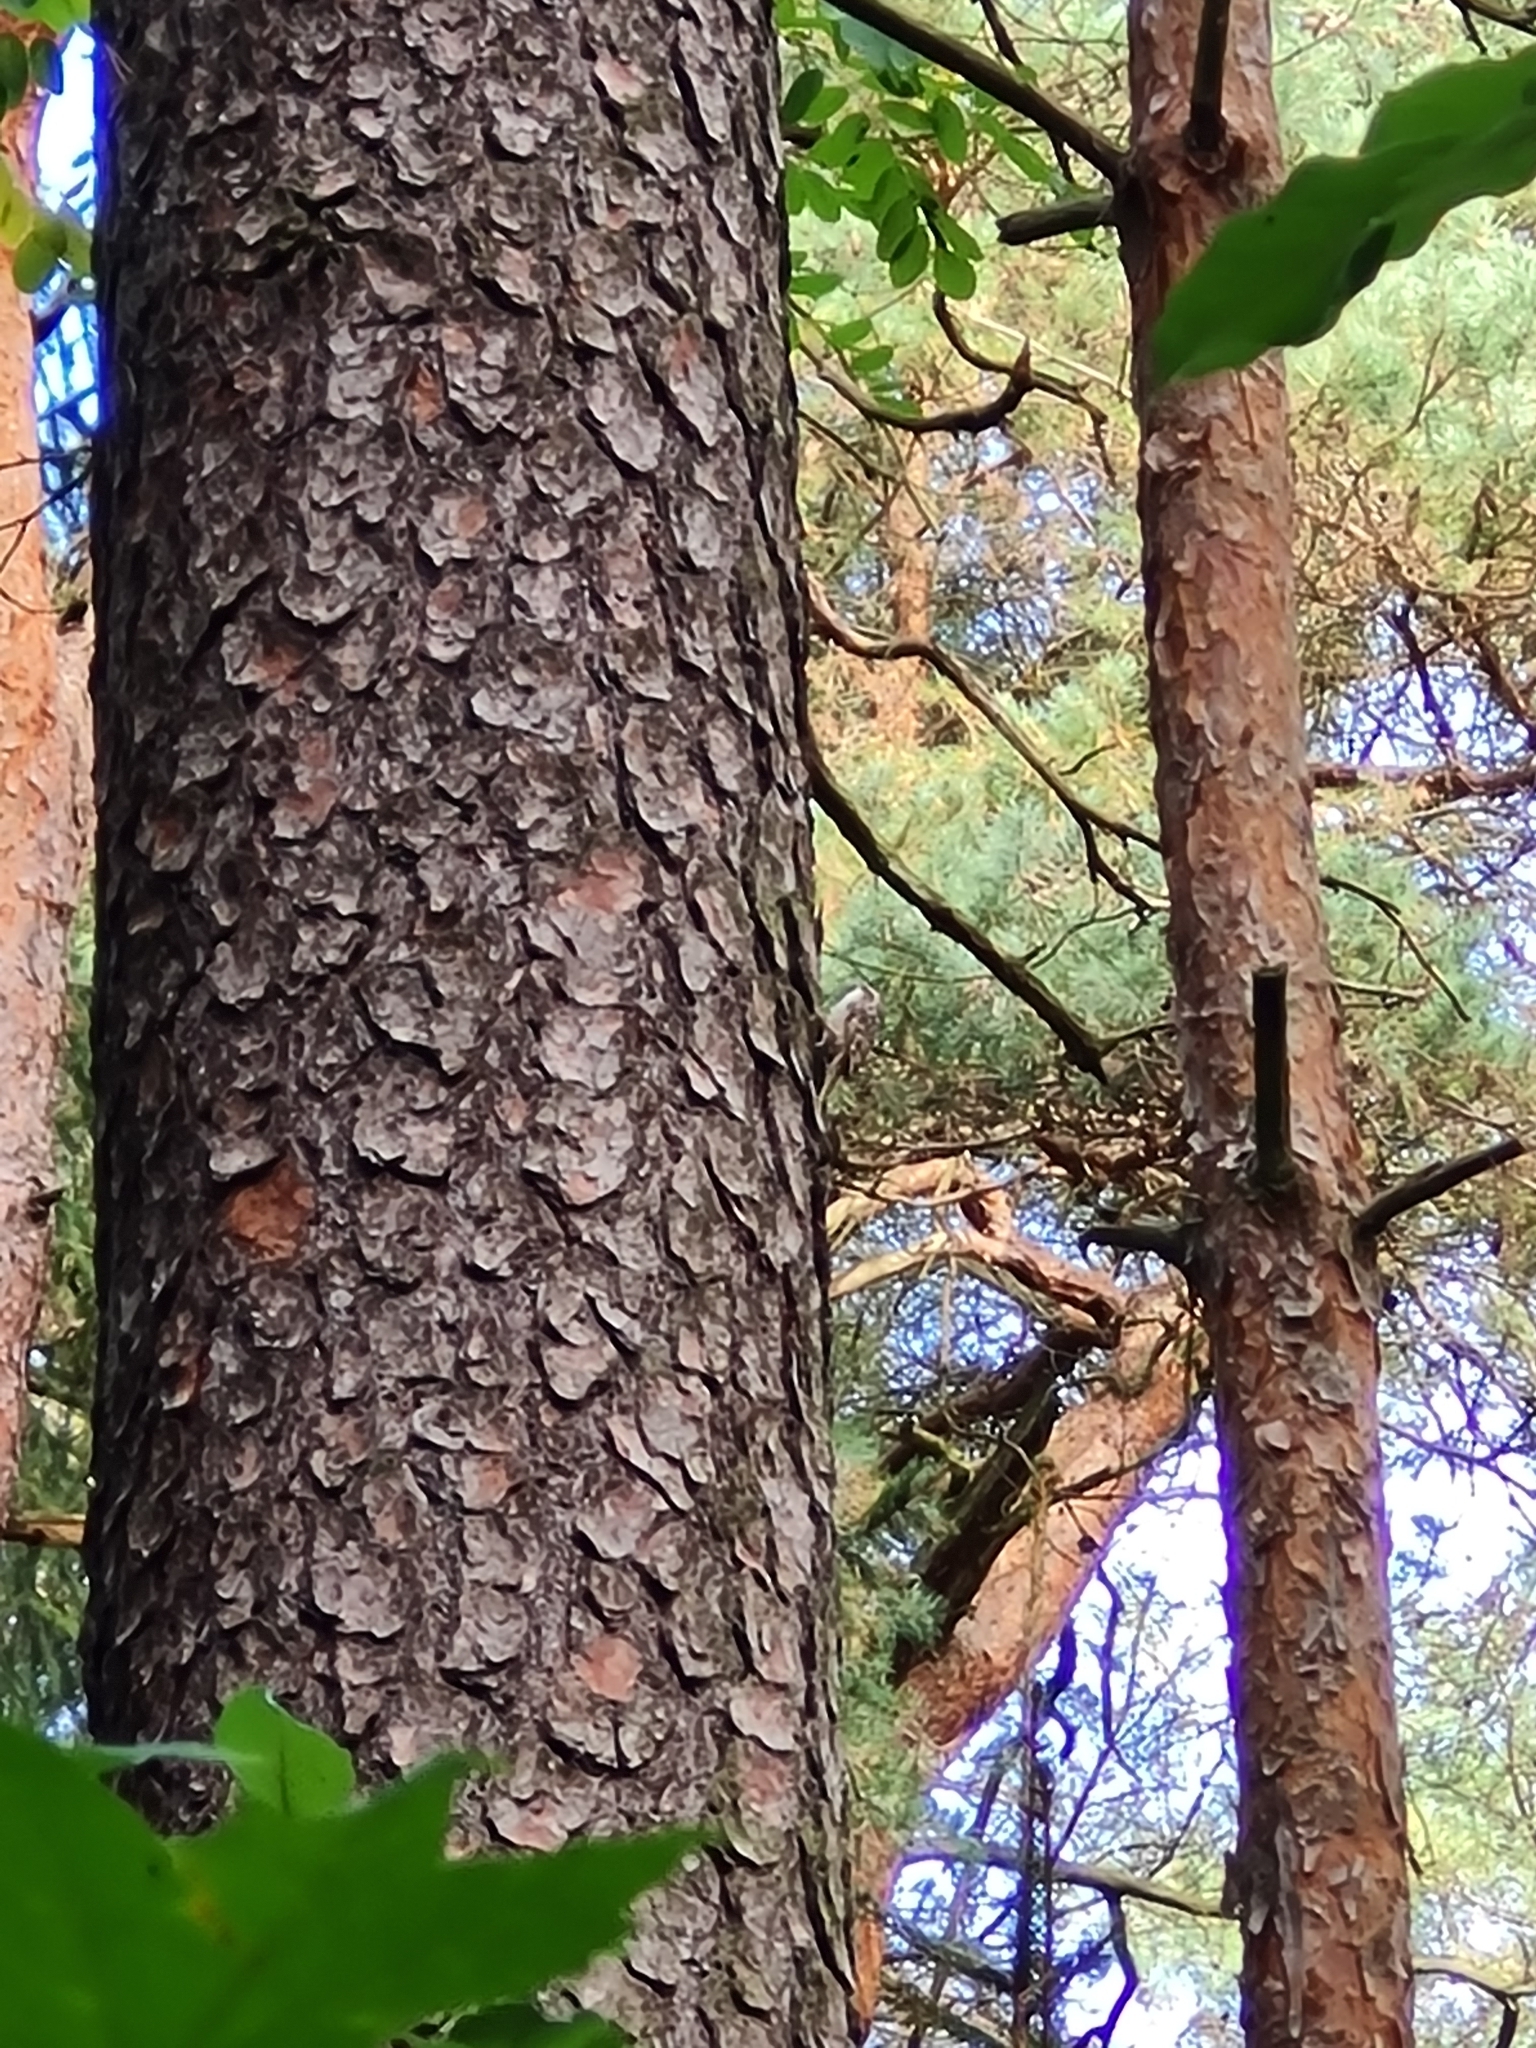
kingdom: Animalia
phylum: Chordata
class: Aves
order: Passeriformes
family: Certhiidae
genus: Certhia
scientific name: Certhia familiaris
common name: Eurasian treecreeper
